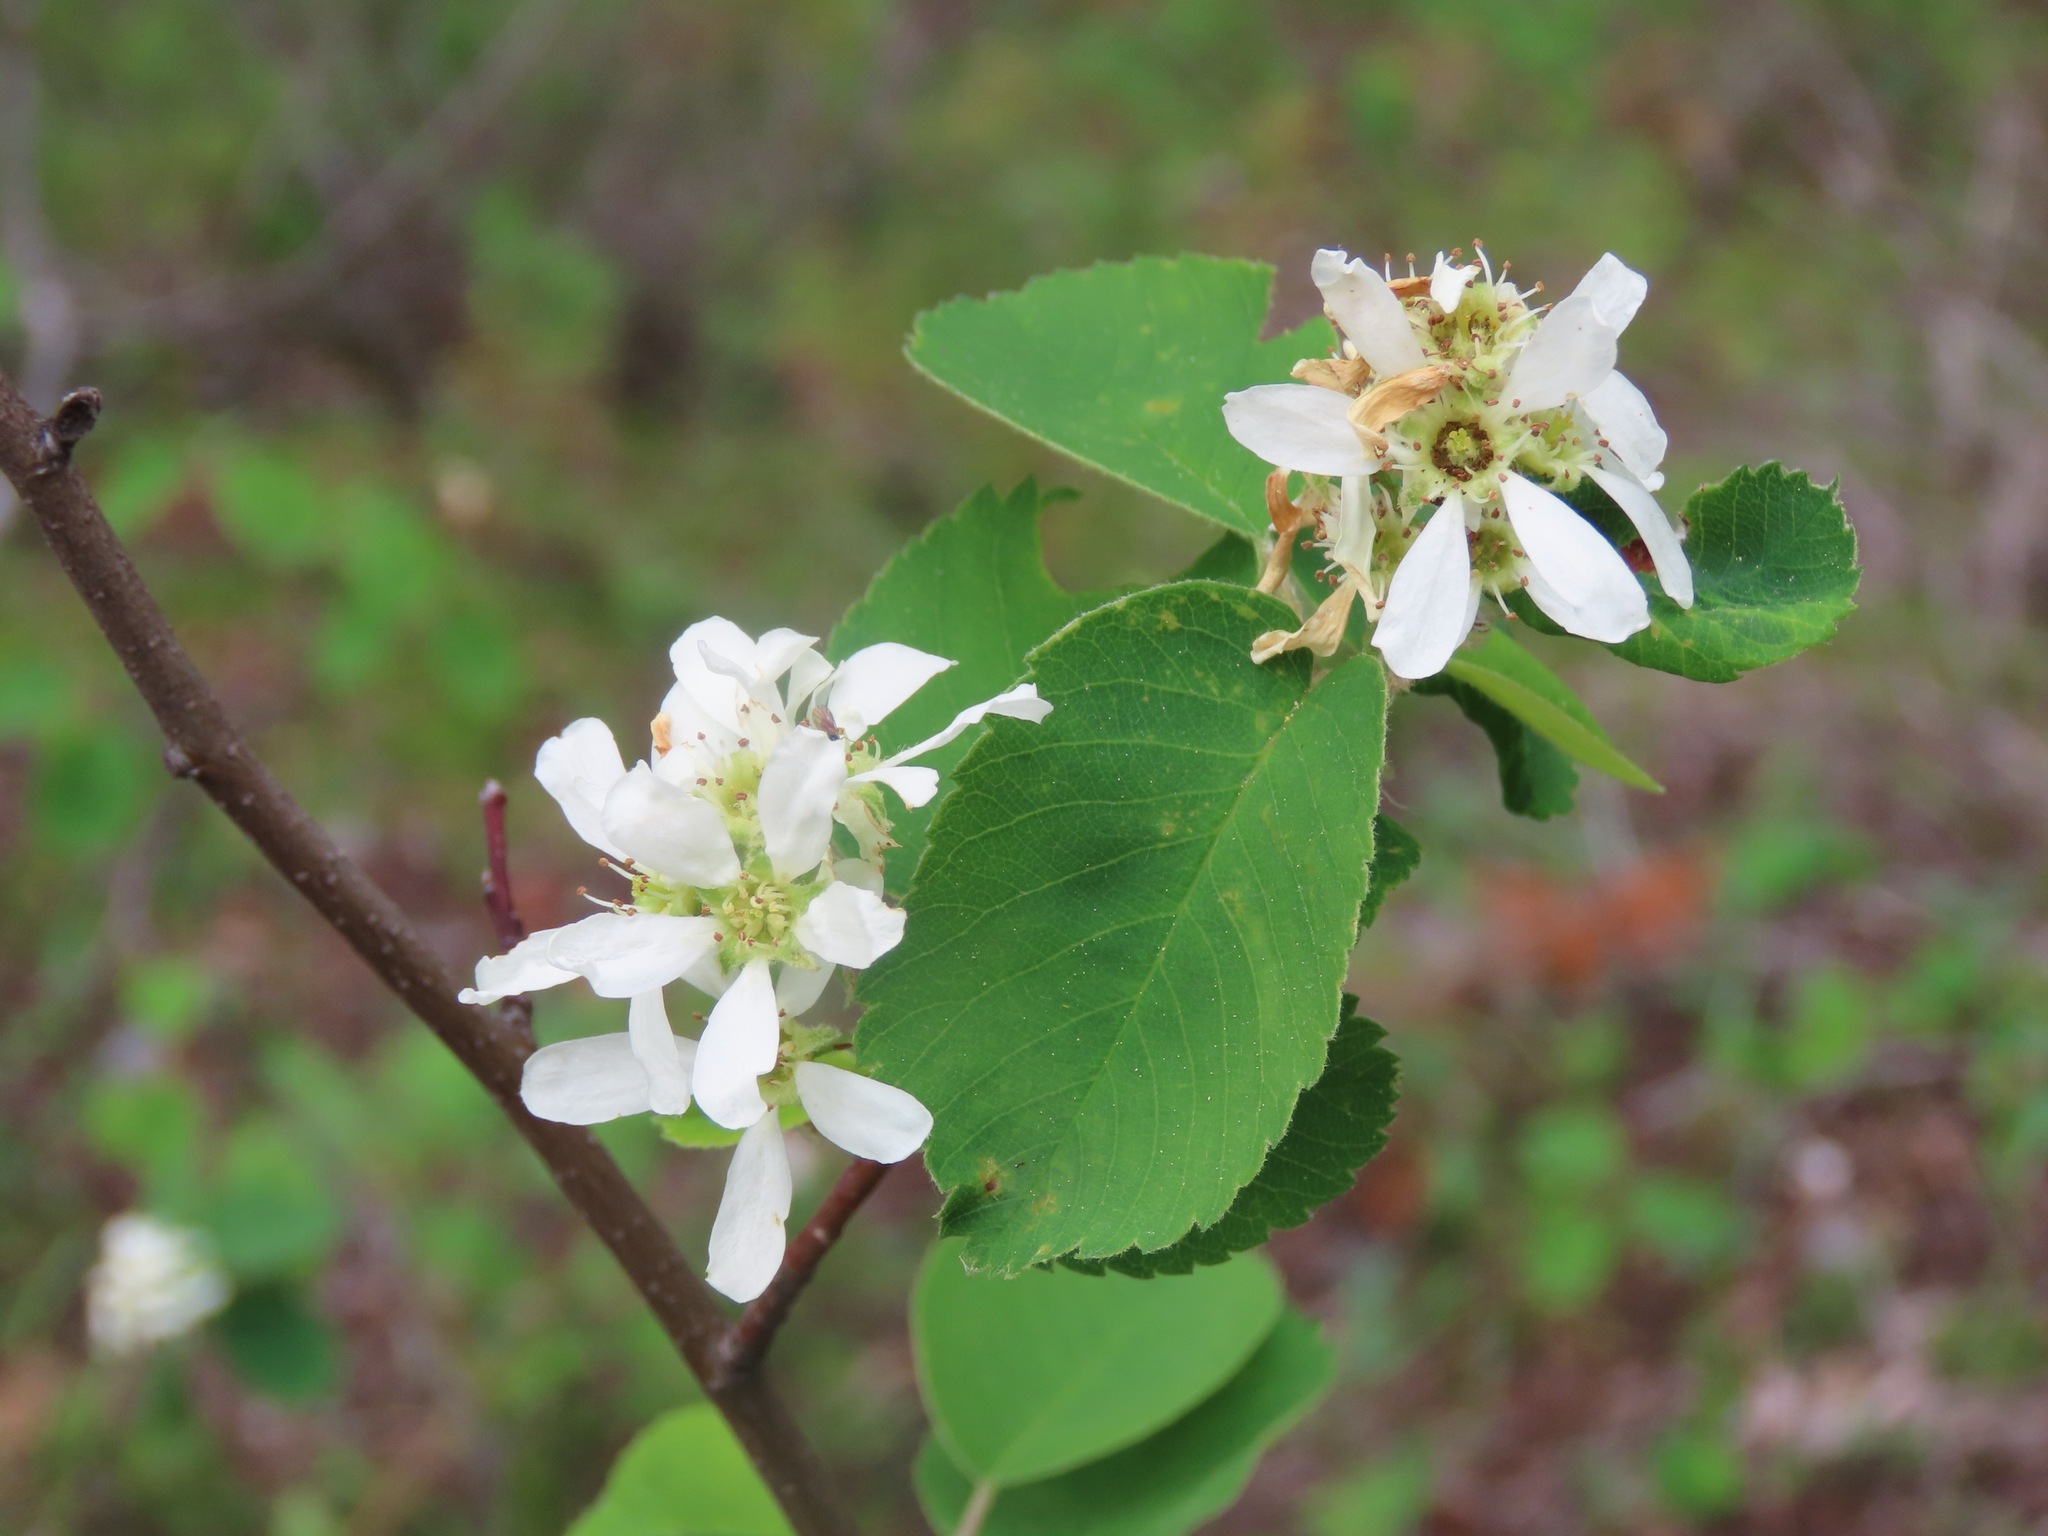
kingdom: Plantae
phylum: Tracheophyta
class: Magnoliopsida
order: Rosales
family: Rosaceae
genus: Amelanchier
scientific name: Amelanchier alnifolia
